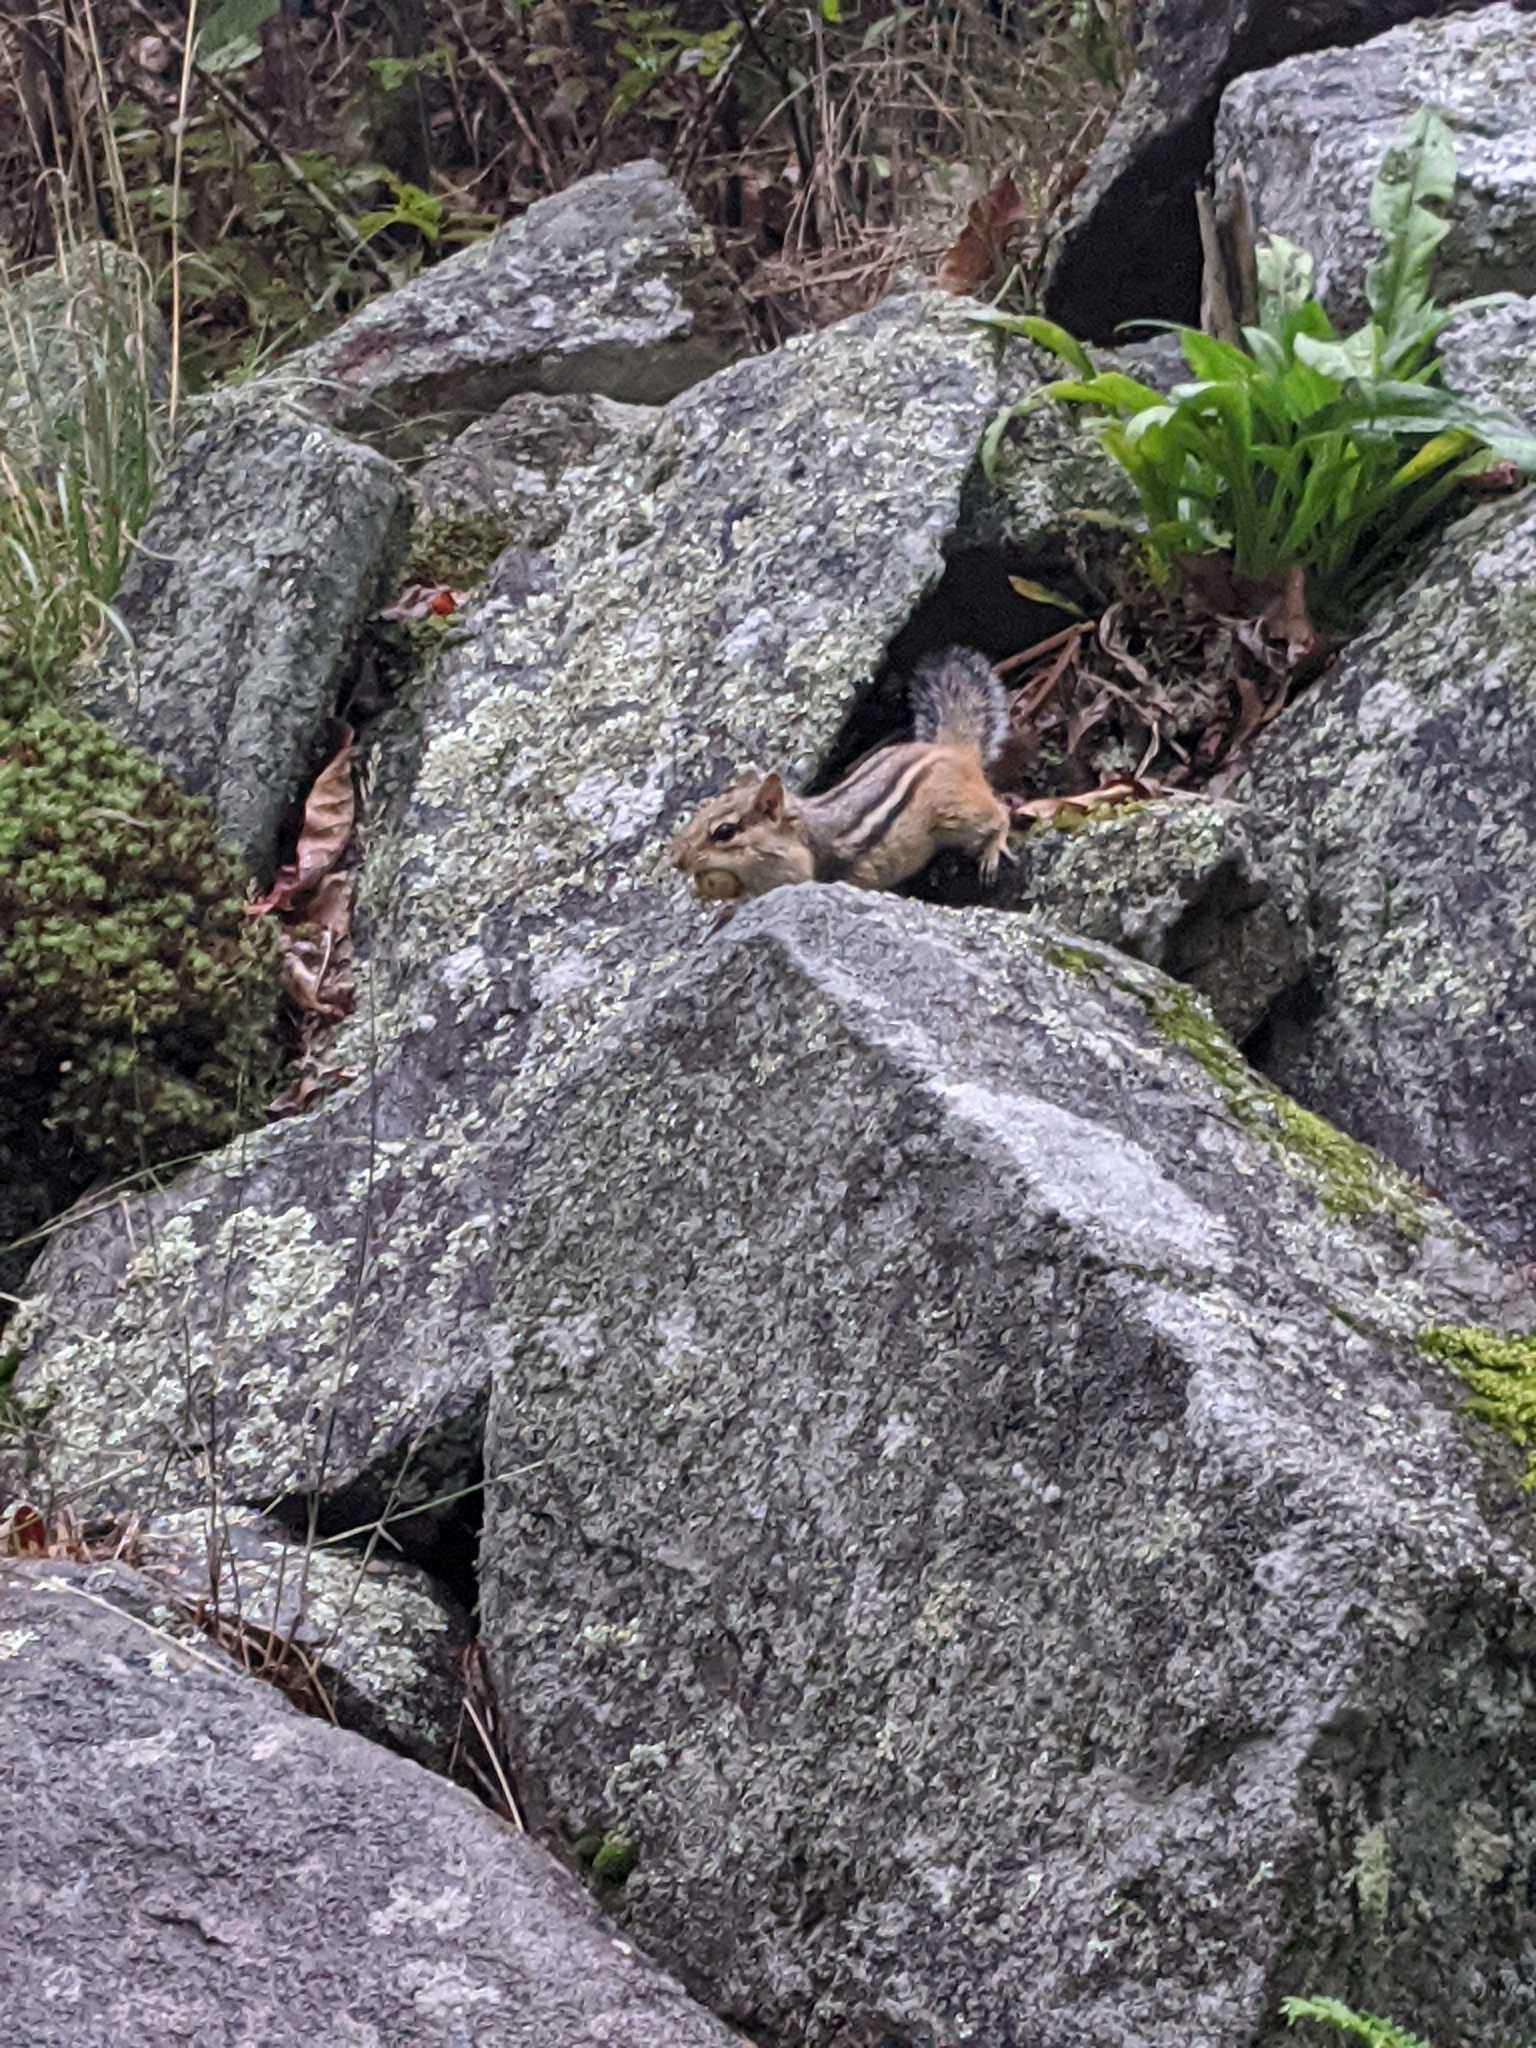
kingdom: Animalia
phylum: Chordata
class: Mammalia
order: Rodentia
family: Sciuridae
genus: Tamias
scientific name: Tamias striatus
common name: Eastern chipmunk
